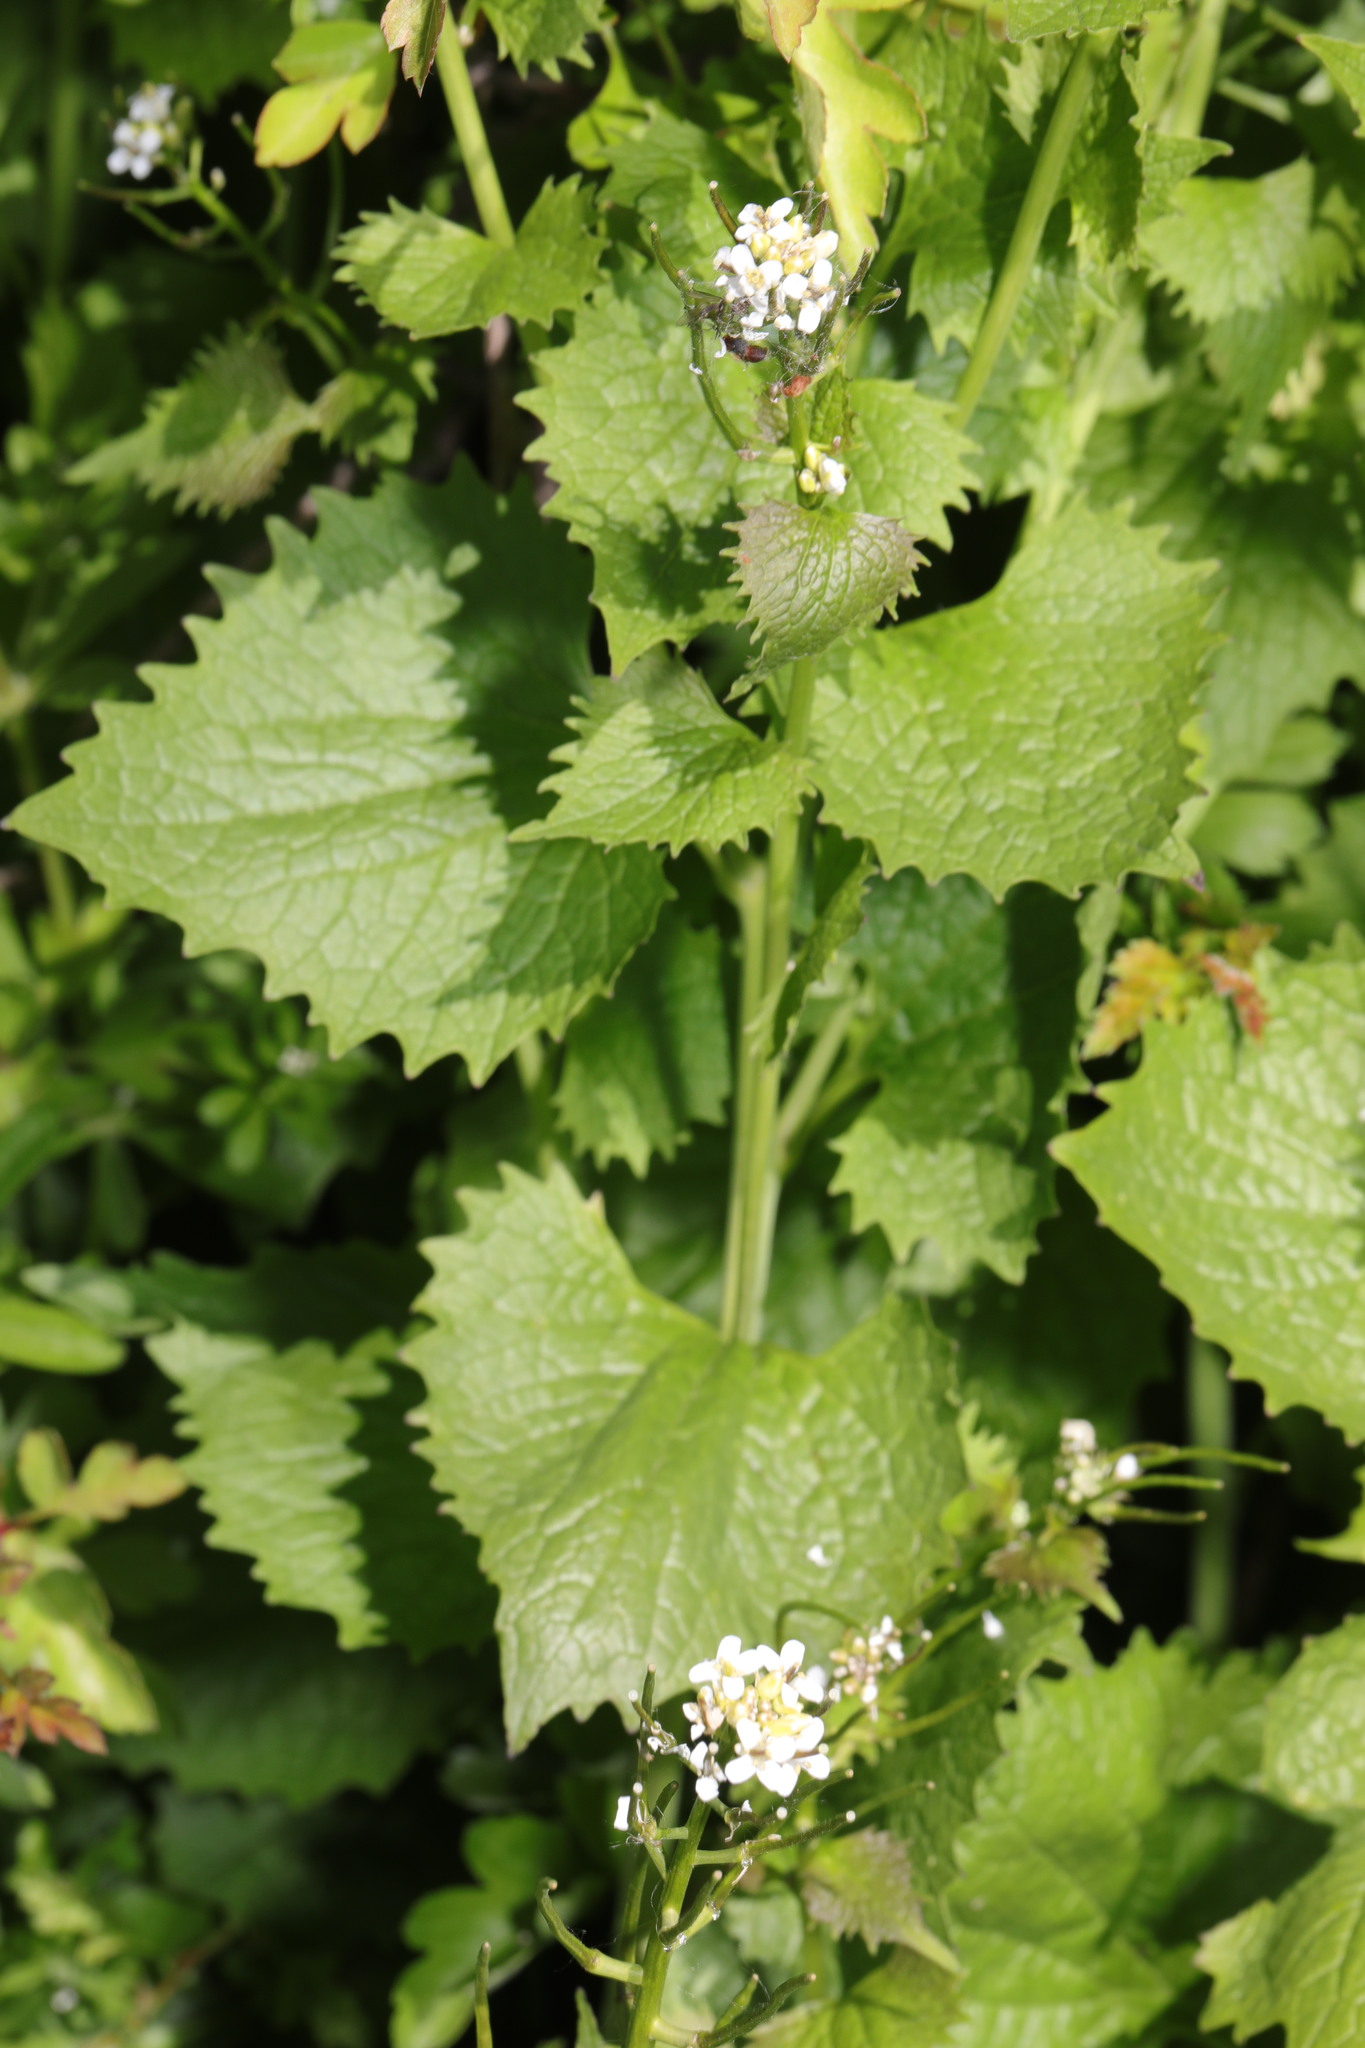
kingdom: Plantae
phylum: Tracheophyta
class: Magnoliopsida
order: Brassicales
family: Brassicaceae
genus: Alliaria
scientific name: Alliaria petiolata
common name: Garlic mustard
